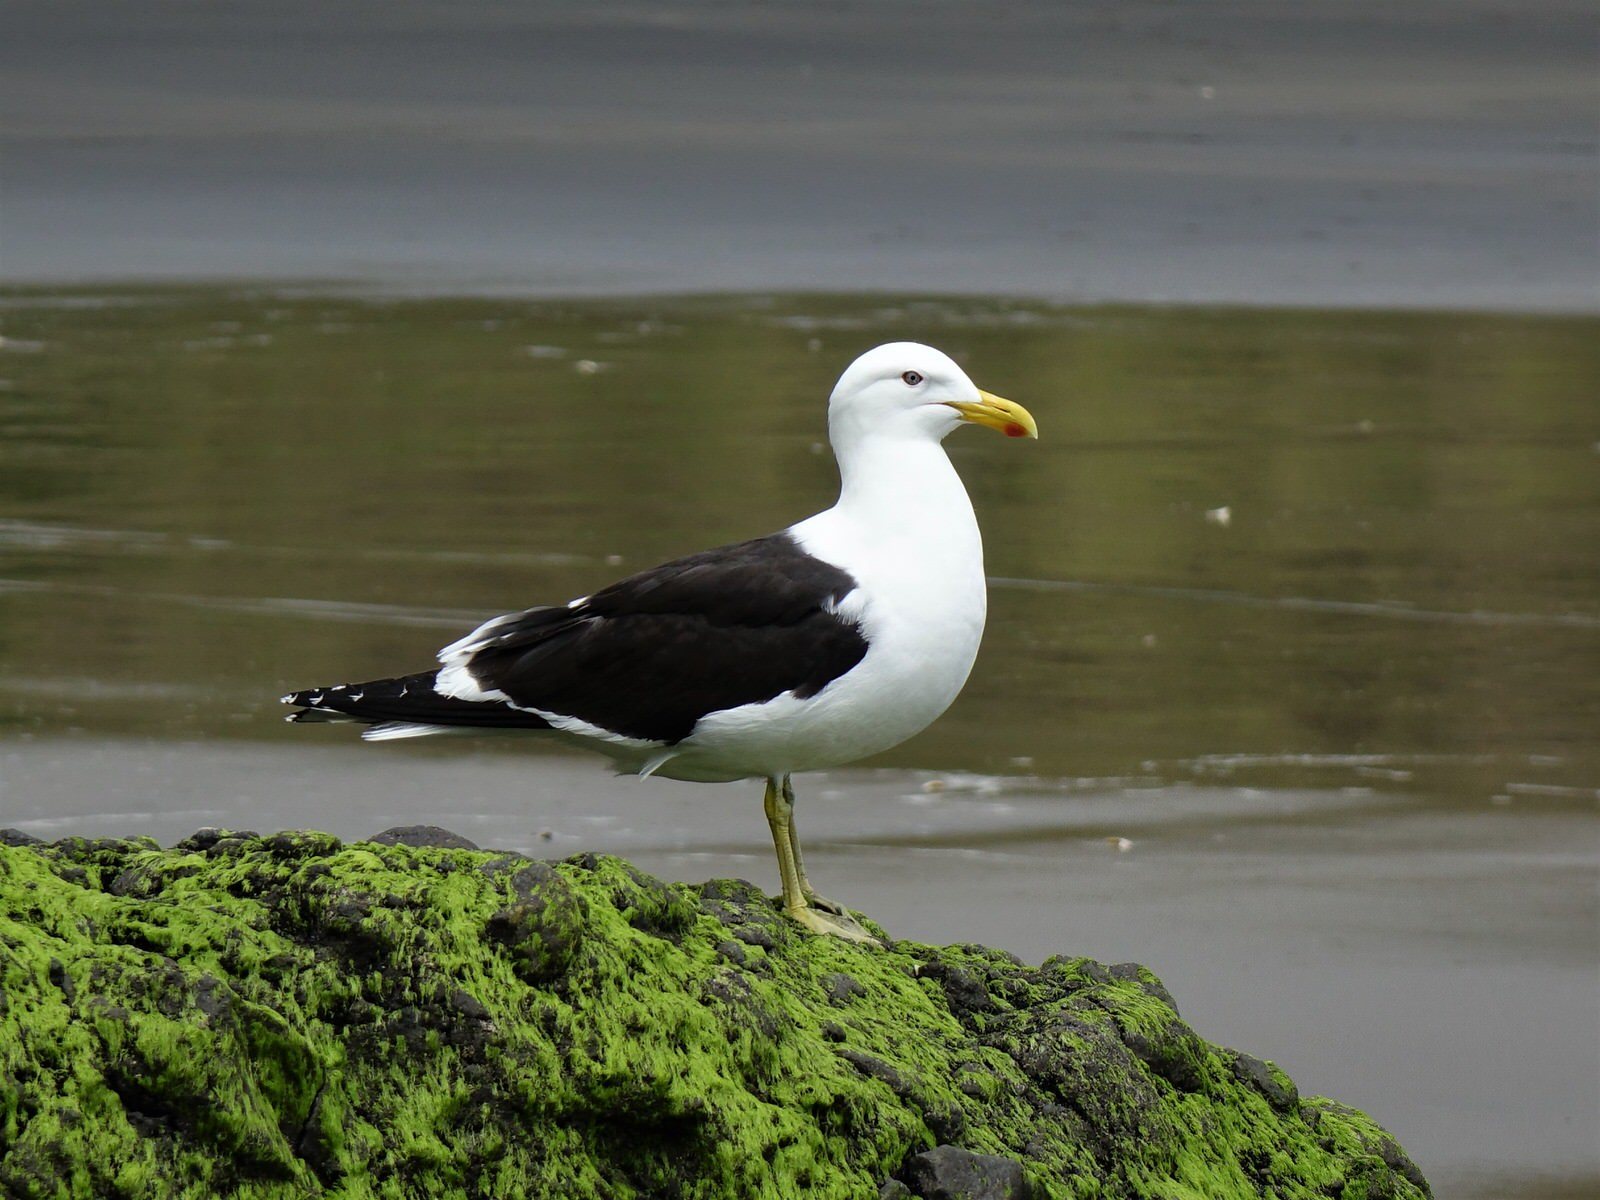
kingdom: Animalia
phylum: Chordata
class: Aves
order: Charadriiformes
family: Laridae
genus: Larus
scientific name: Larus dominicanus
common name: Kelp gull
